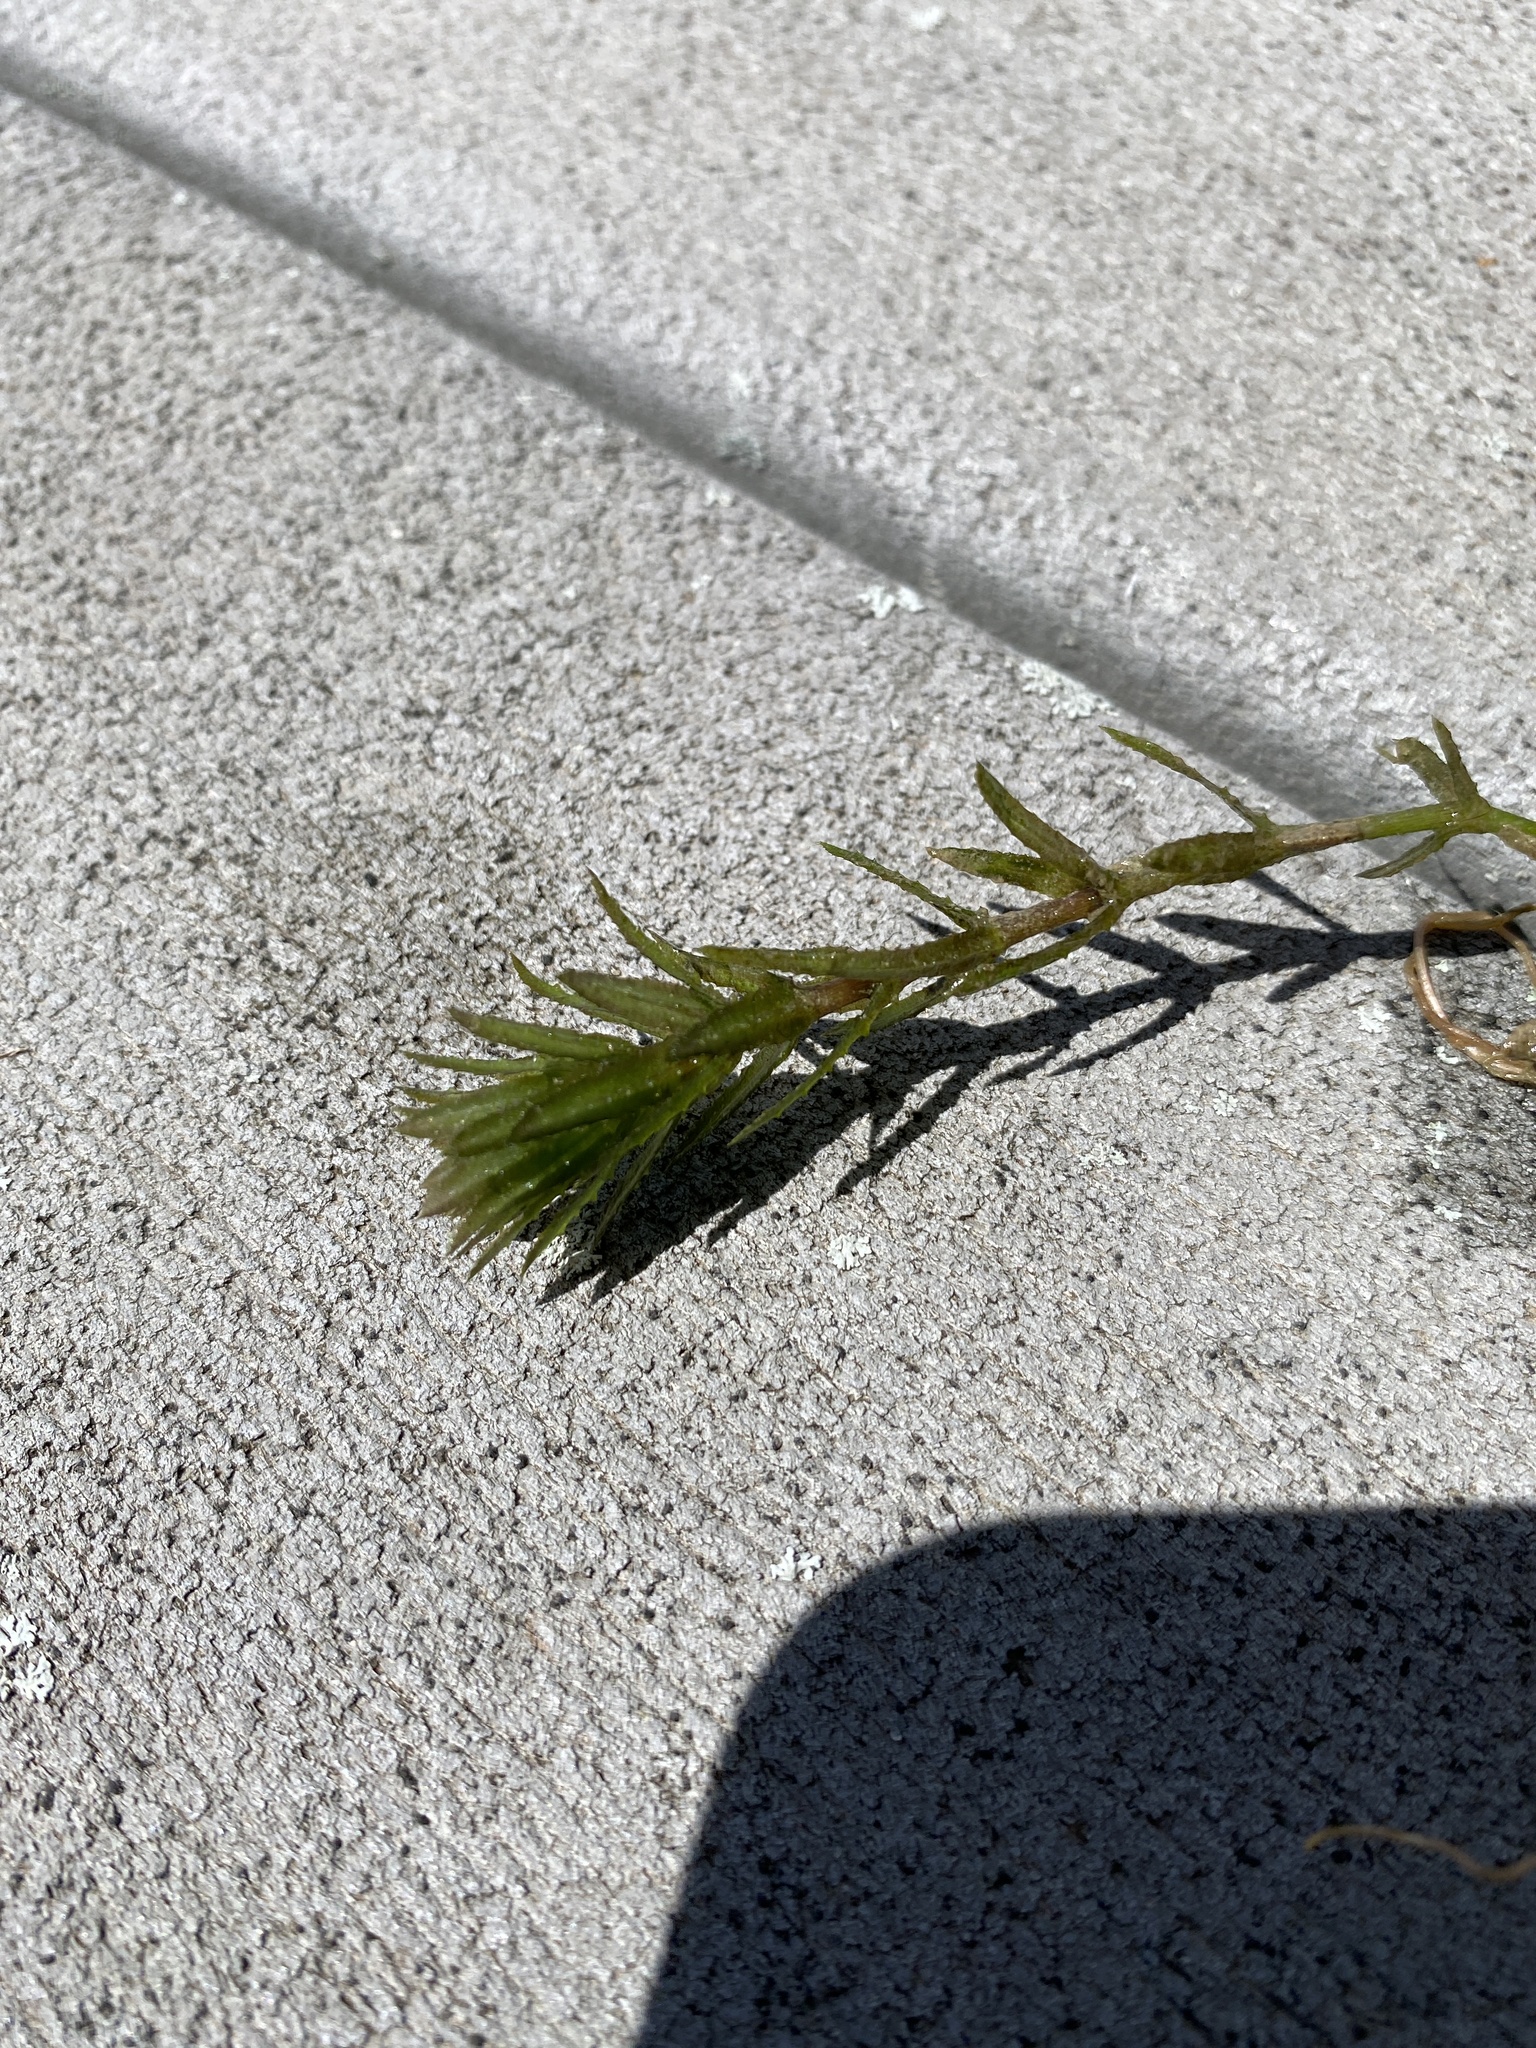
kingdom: Plantae
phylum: Tracheophyta
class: Liliopsida
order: Alismatales
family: Hydrocharitaceae
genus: Hydrilla
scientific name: Hydrilla verticillata
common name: Florida-elodea
